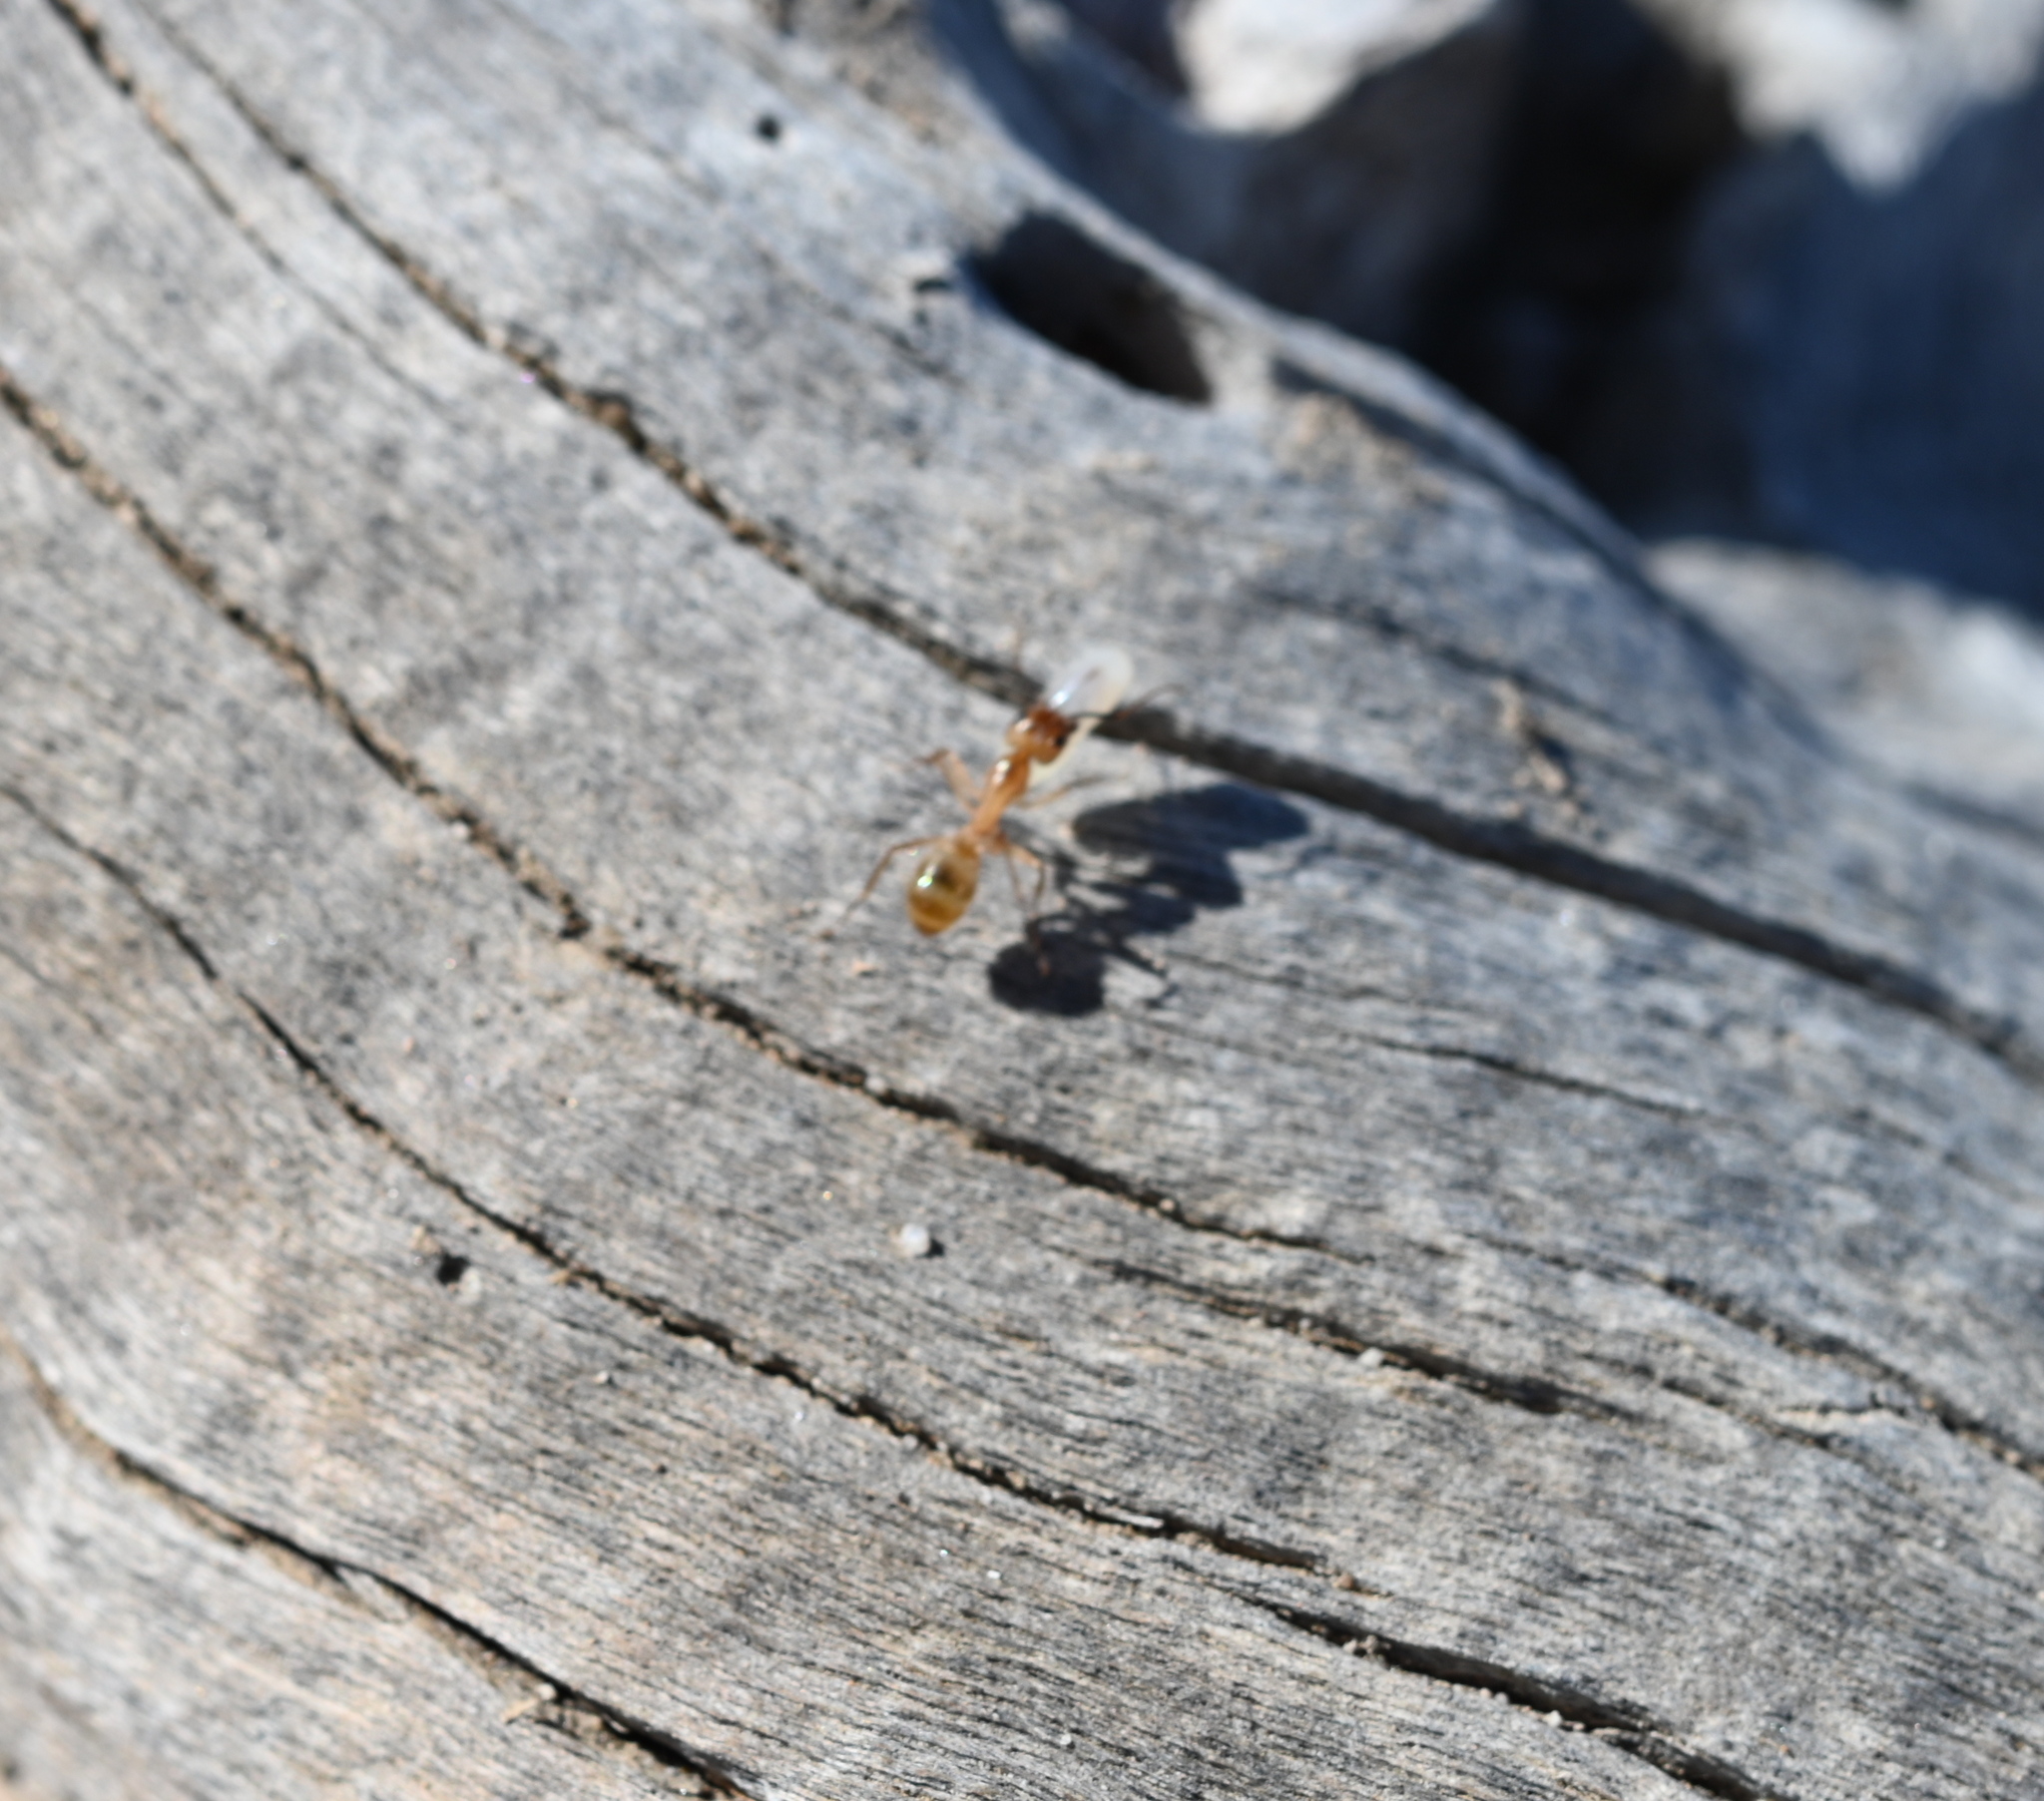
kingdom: Animalia
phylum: Arthropoda
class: Insecta
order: Hymenoptera
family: Formicidae
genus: Camponotus
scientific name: Camponotus fragilis
